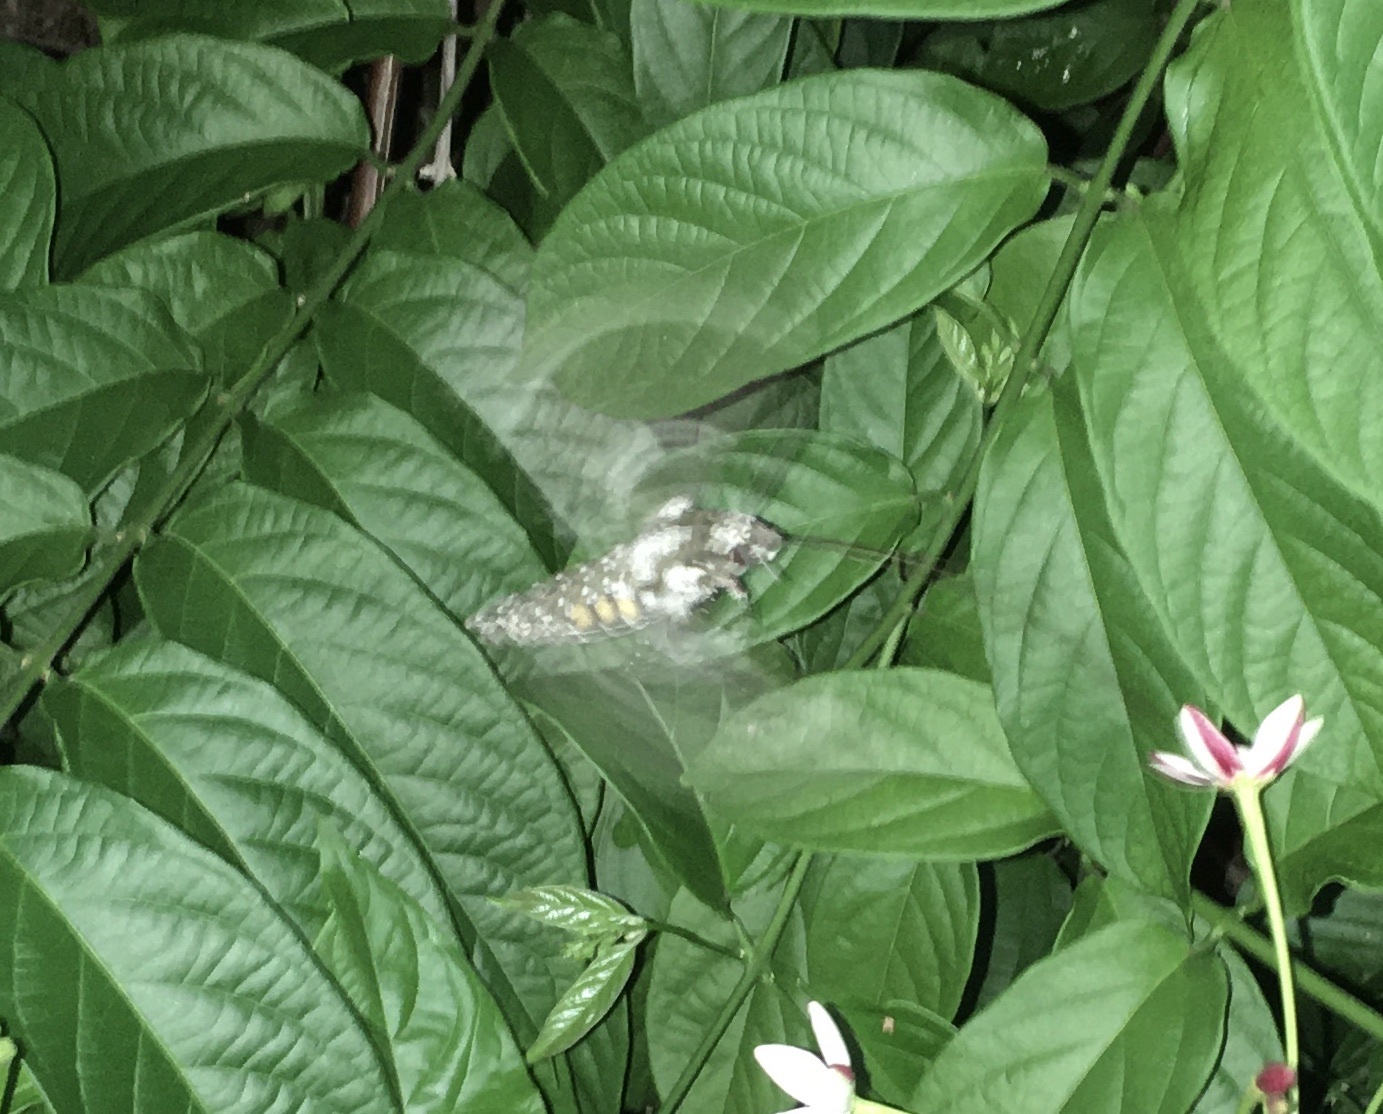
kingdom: Animalia
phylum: Arthropoda
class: Insecta
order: Lepidoptera
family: Sphingidae
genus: Manduca
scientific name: Manduca rustica
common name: Rustic sphinx
